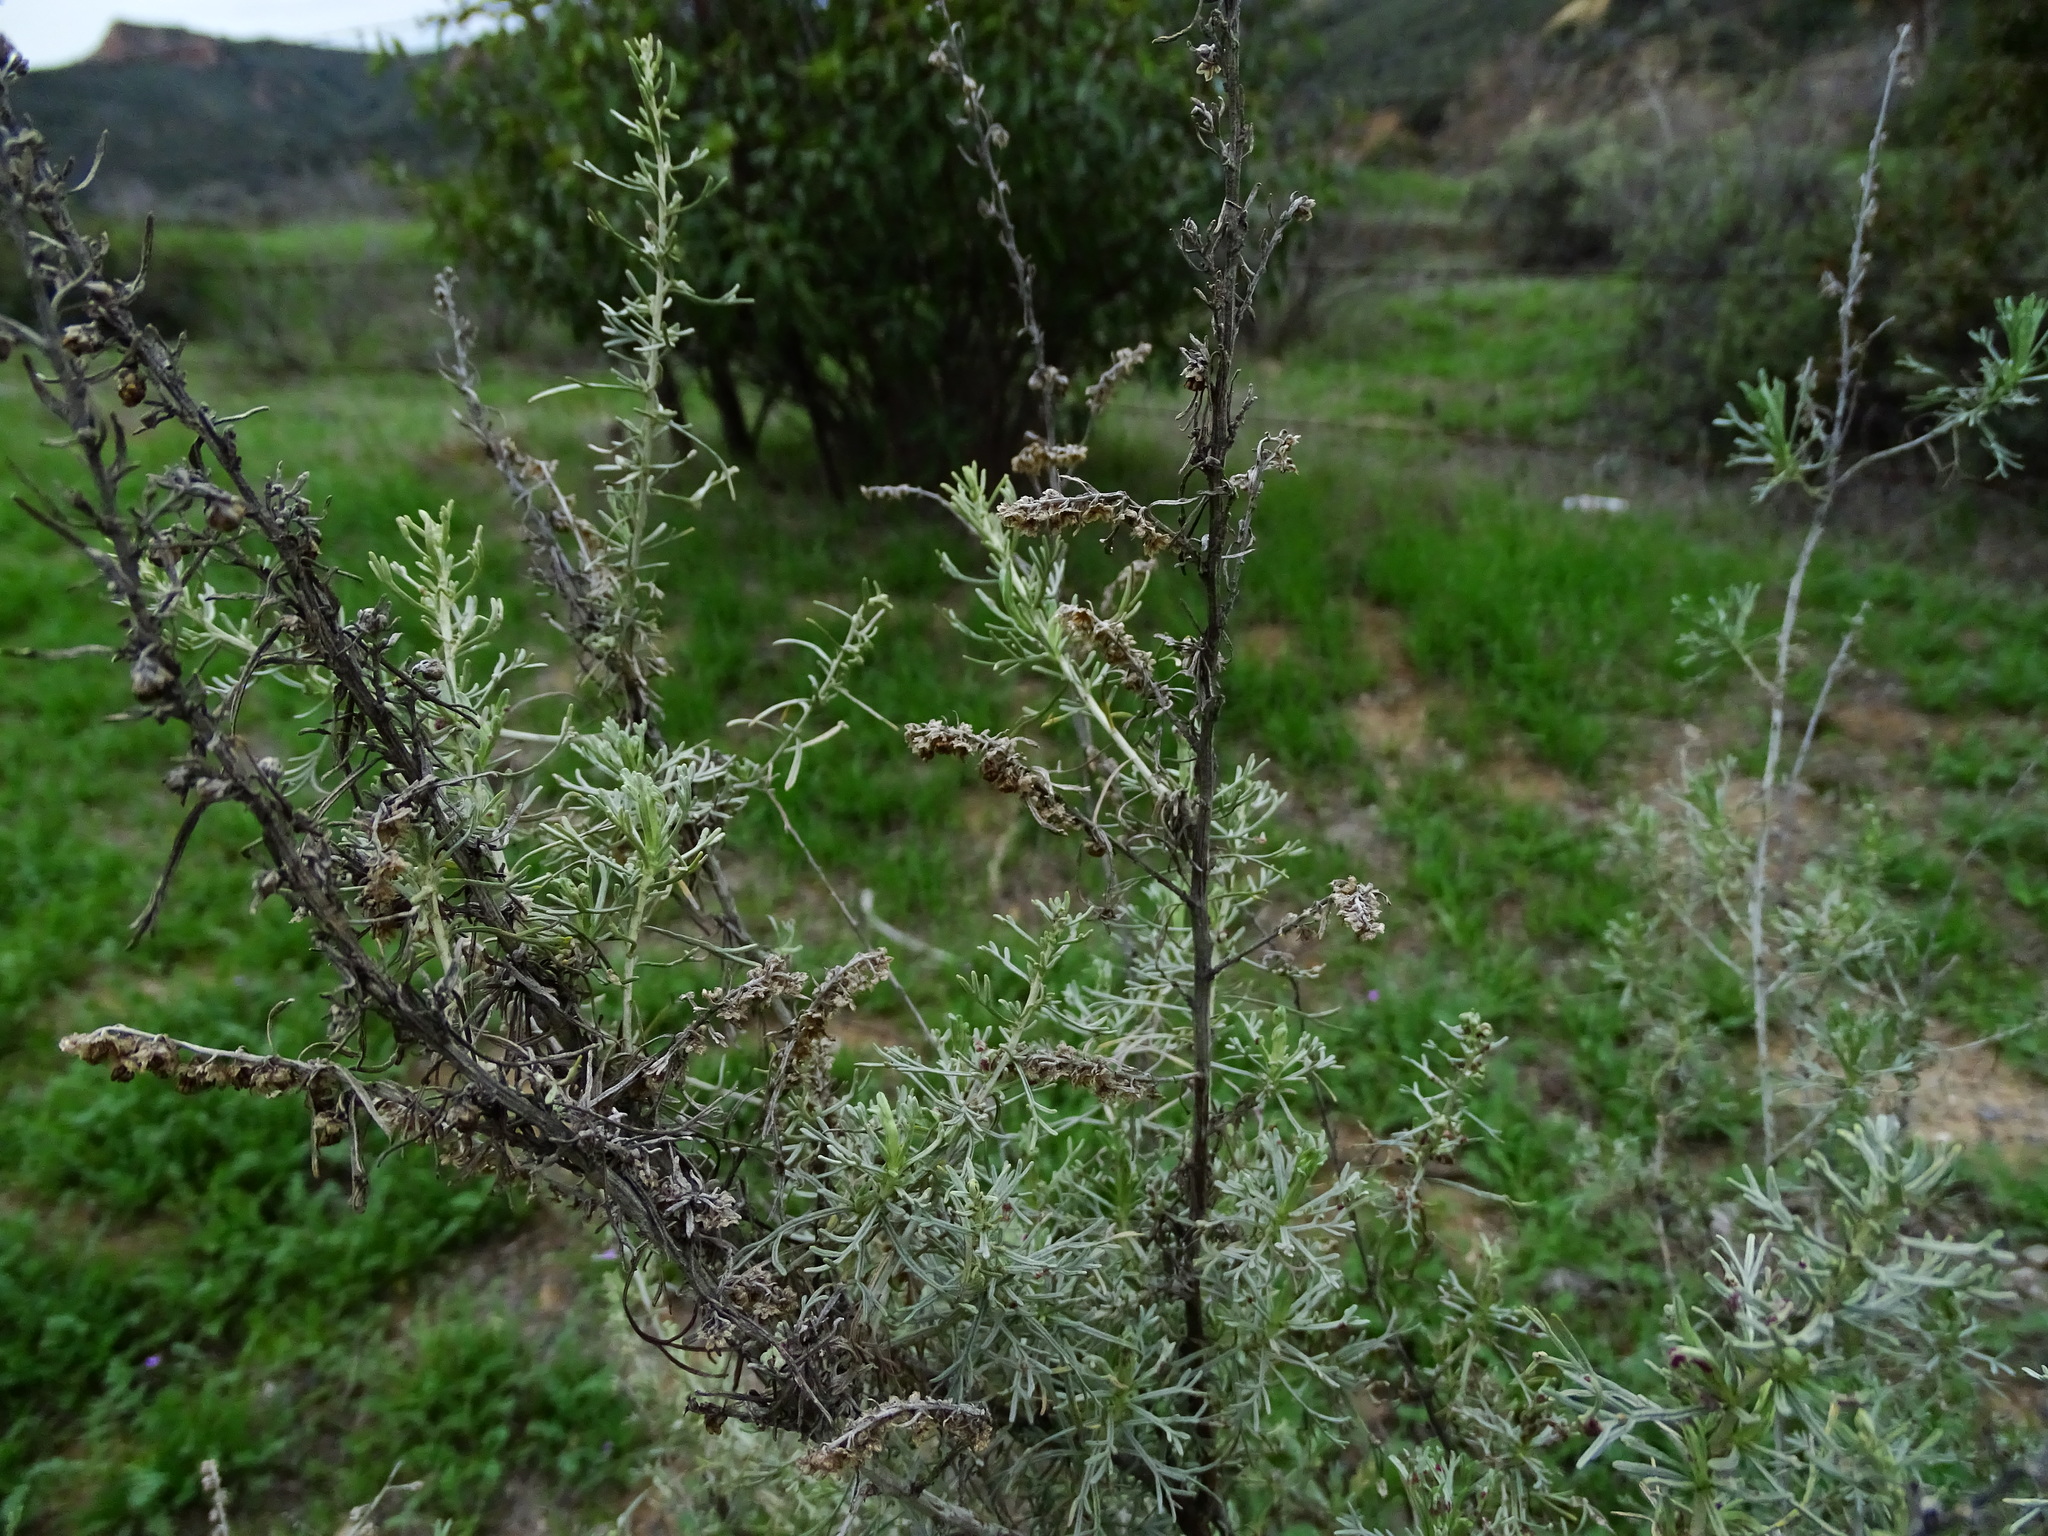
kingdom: Plantae
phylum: Tracheophyta
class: Magnoliopsida
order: Asterales
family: Asteraceae
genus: Artemisia
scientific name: Artemisia californica
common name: California sagebrush
